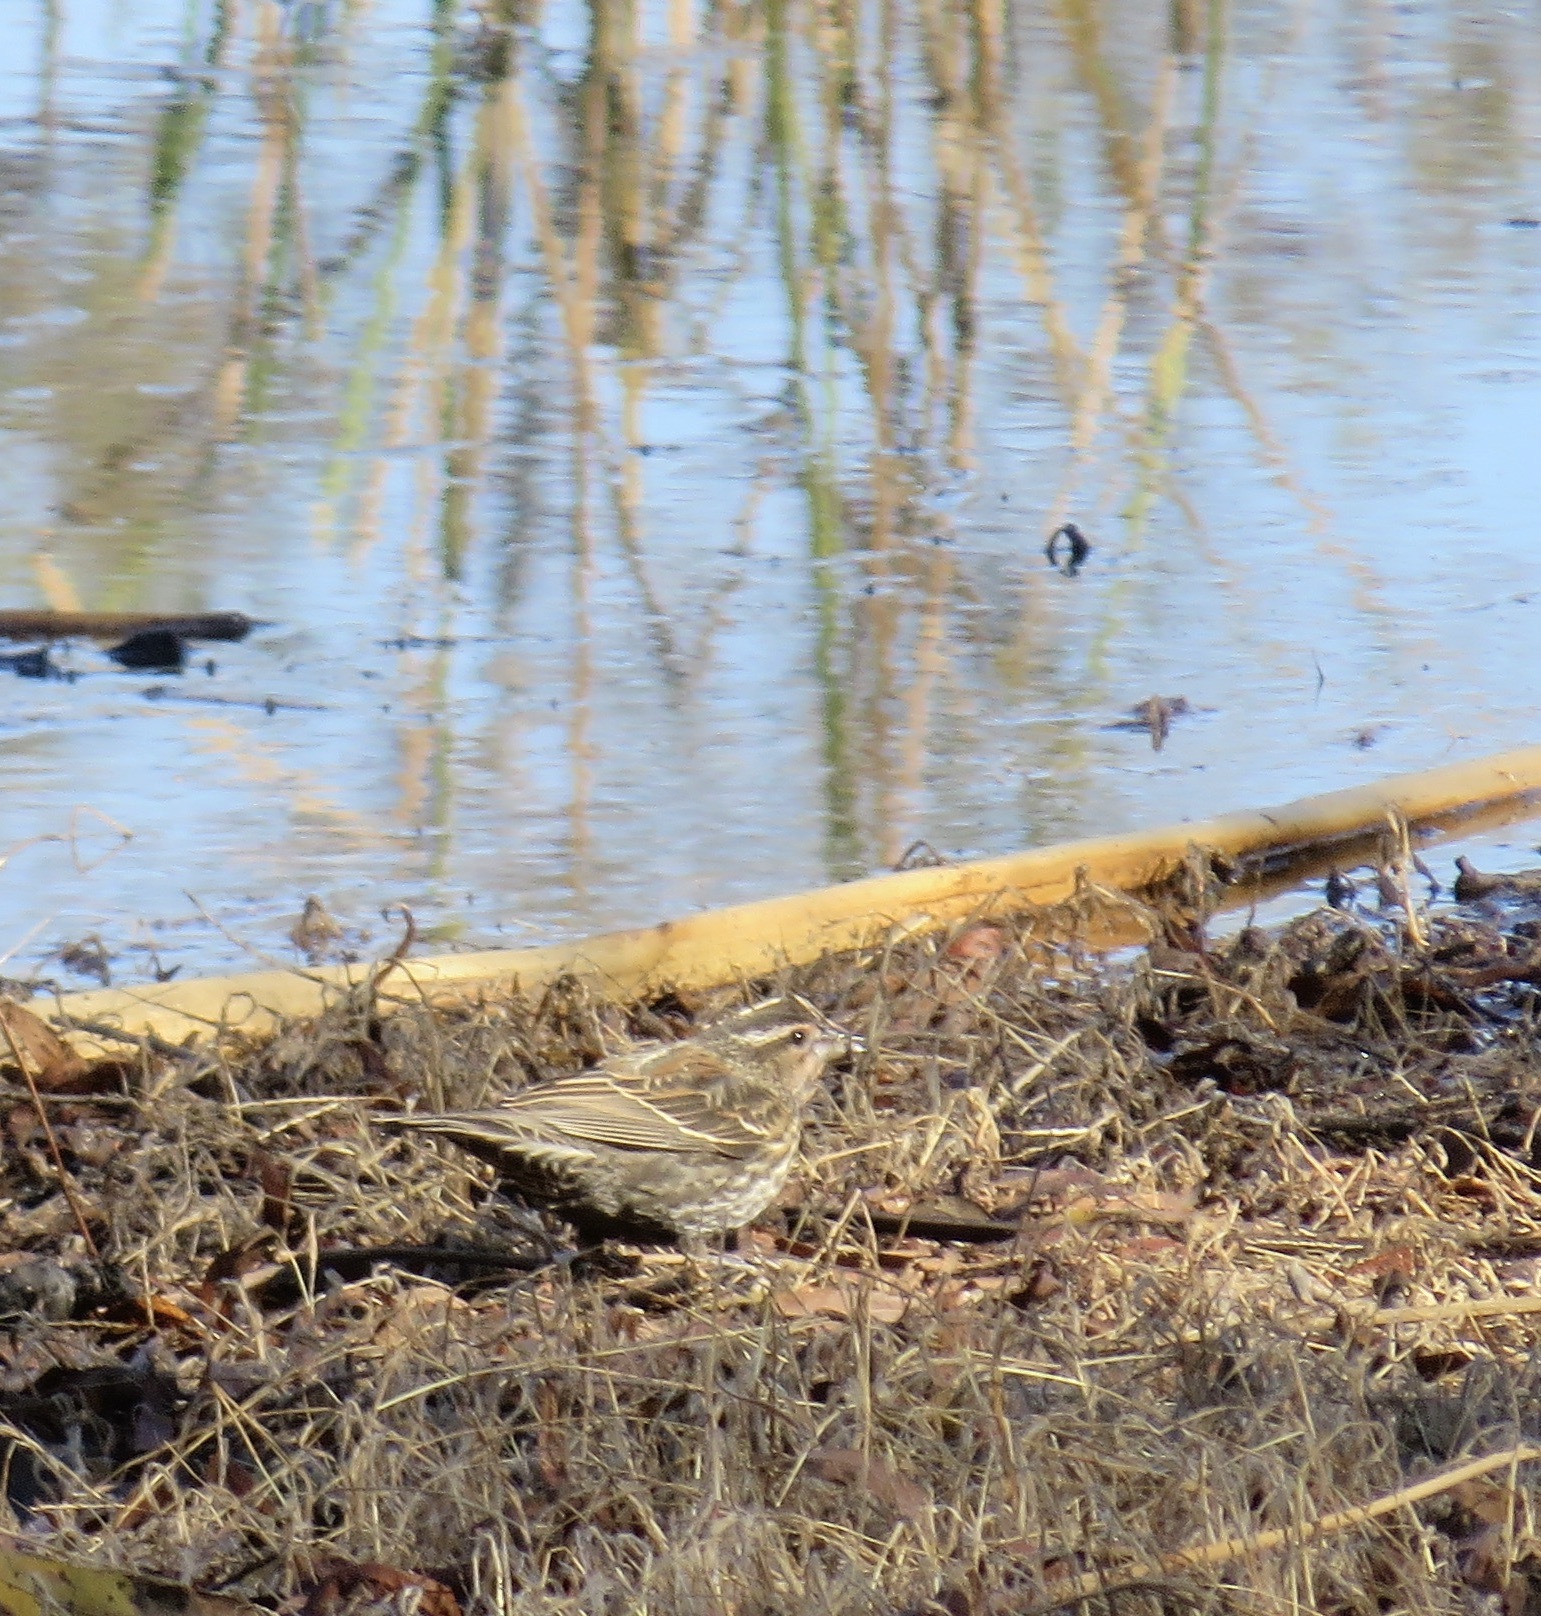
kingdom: Animalia
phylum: Chordata
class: Aves
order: Passeriformes
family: Icteridae
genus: Agelaius
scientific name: Agelaius phoeniceus
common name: Red-winged blackbird
